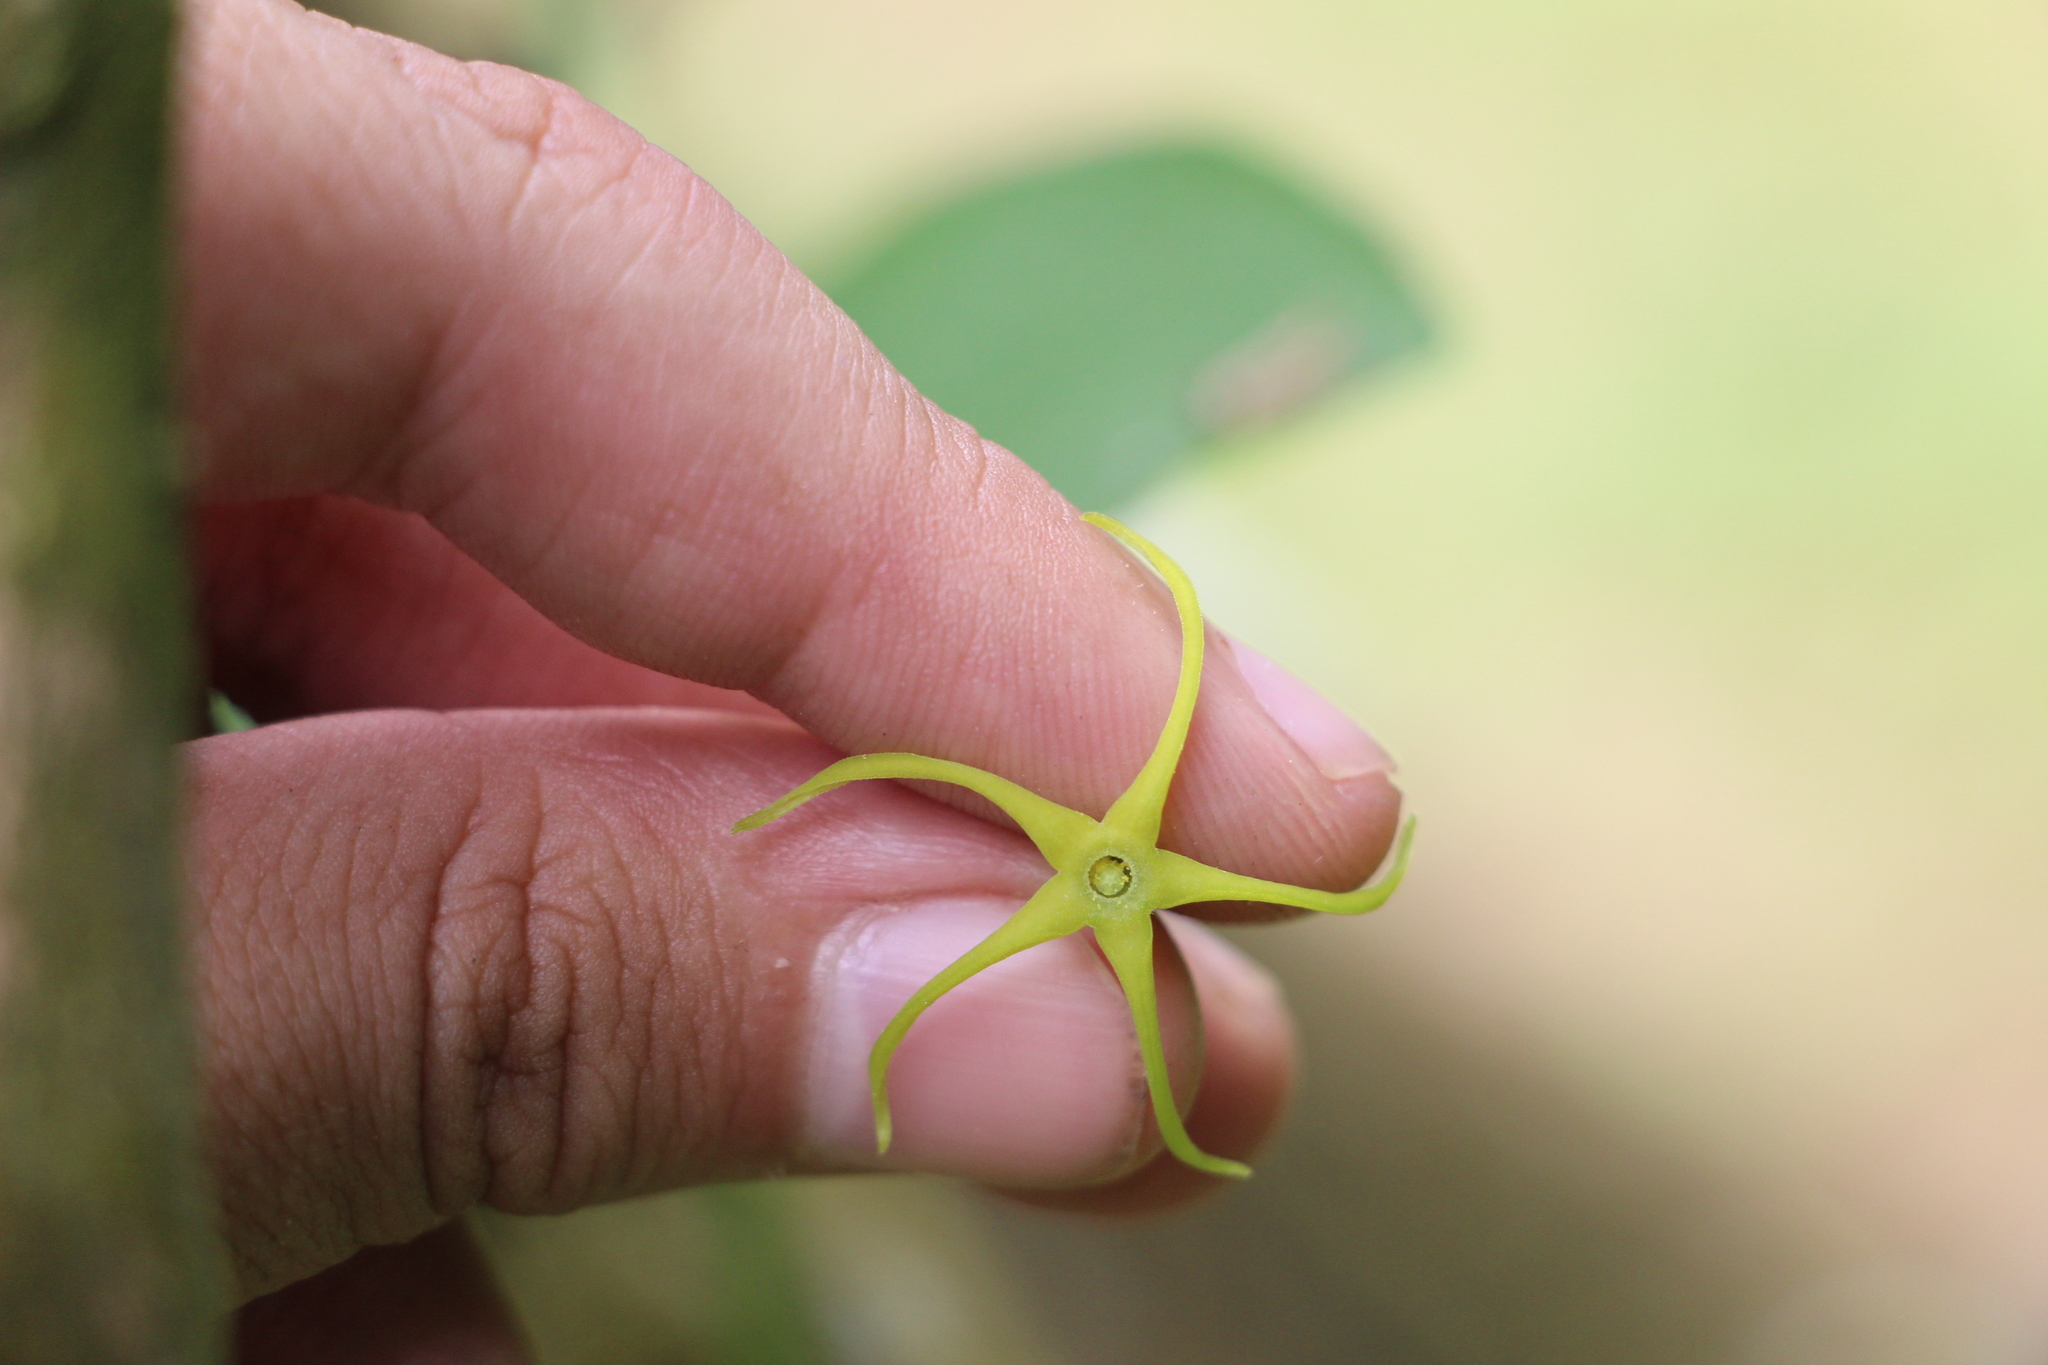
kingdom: Plantae
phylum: Tracheophyta
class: Magnoliopsida
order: Cucurbitales
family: Cucurbitaceae
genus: Cyclanthera
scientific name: Cyclanthera carthagenensis
